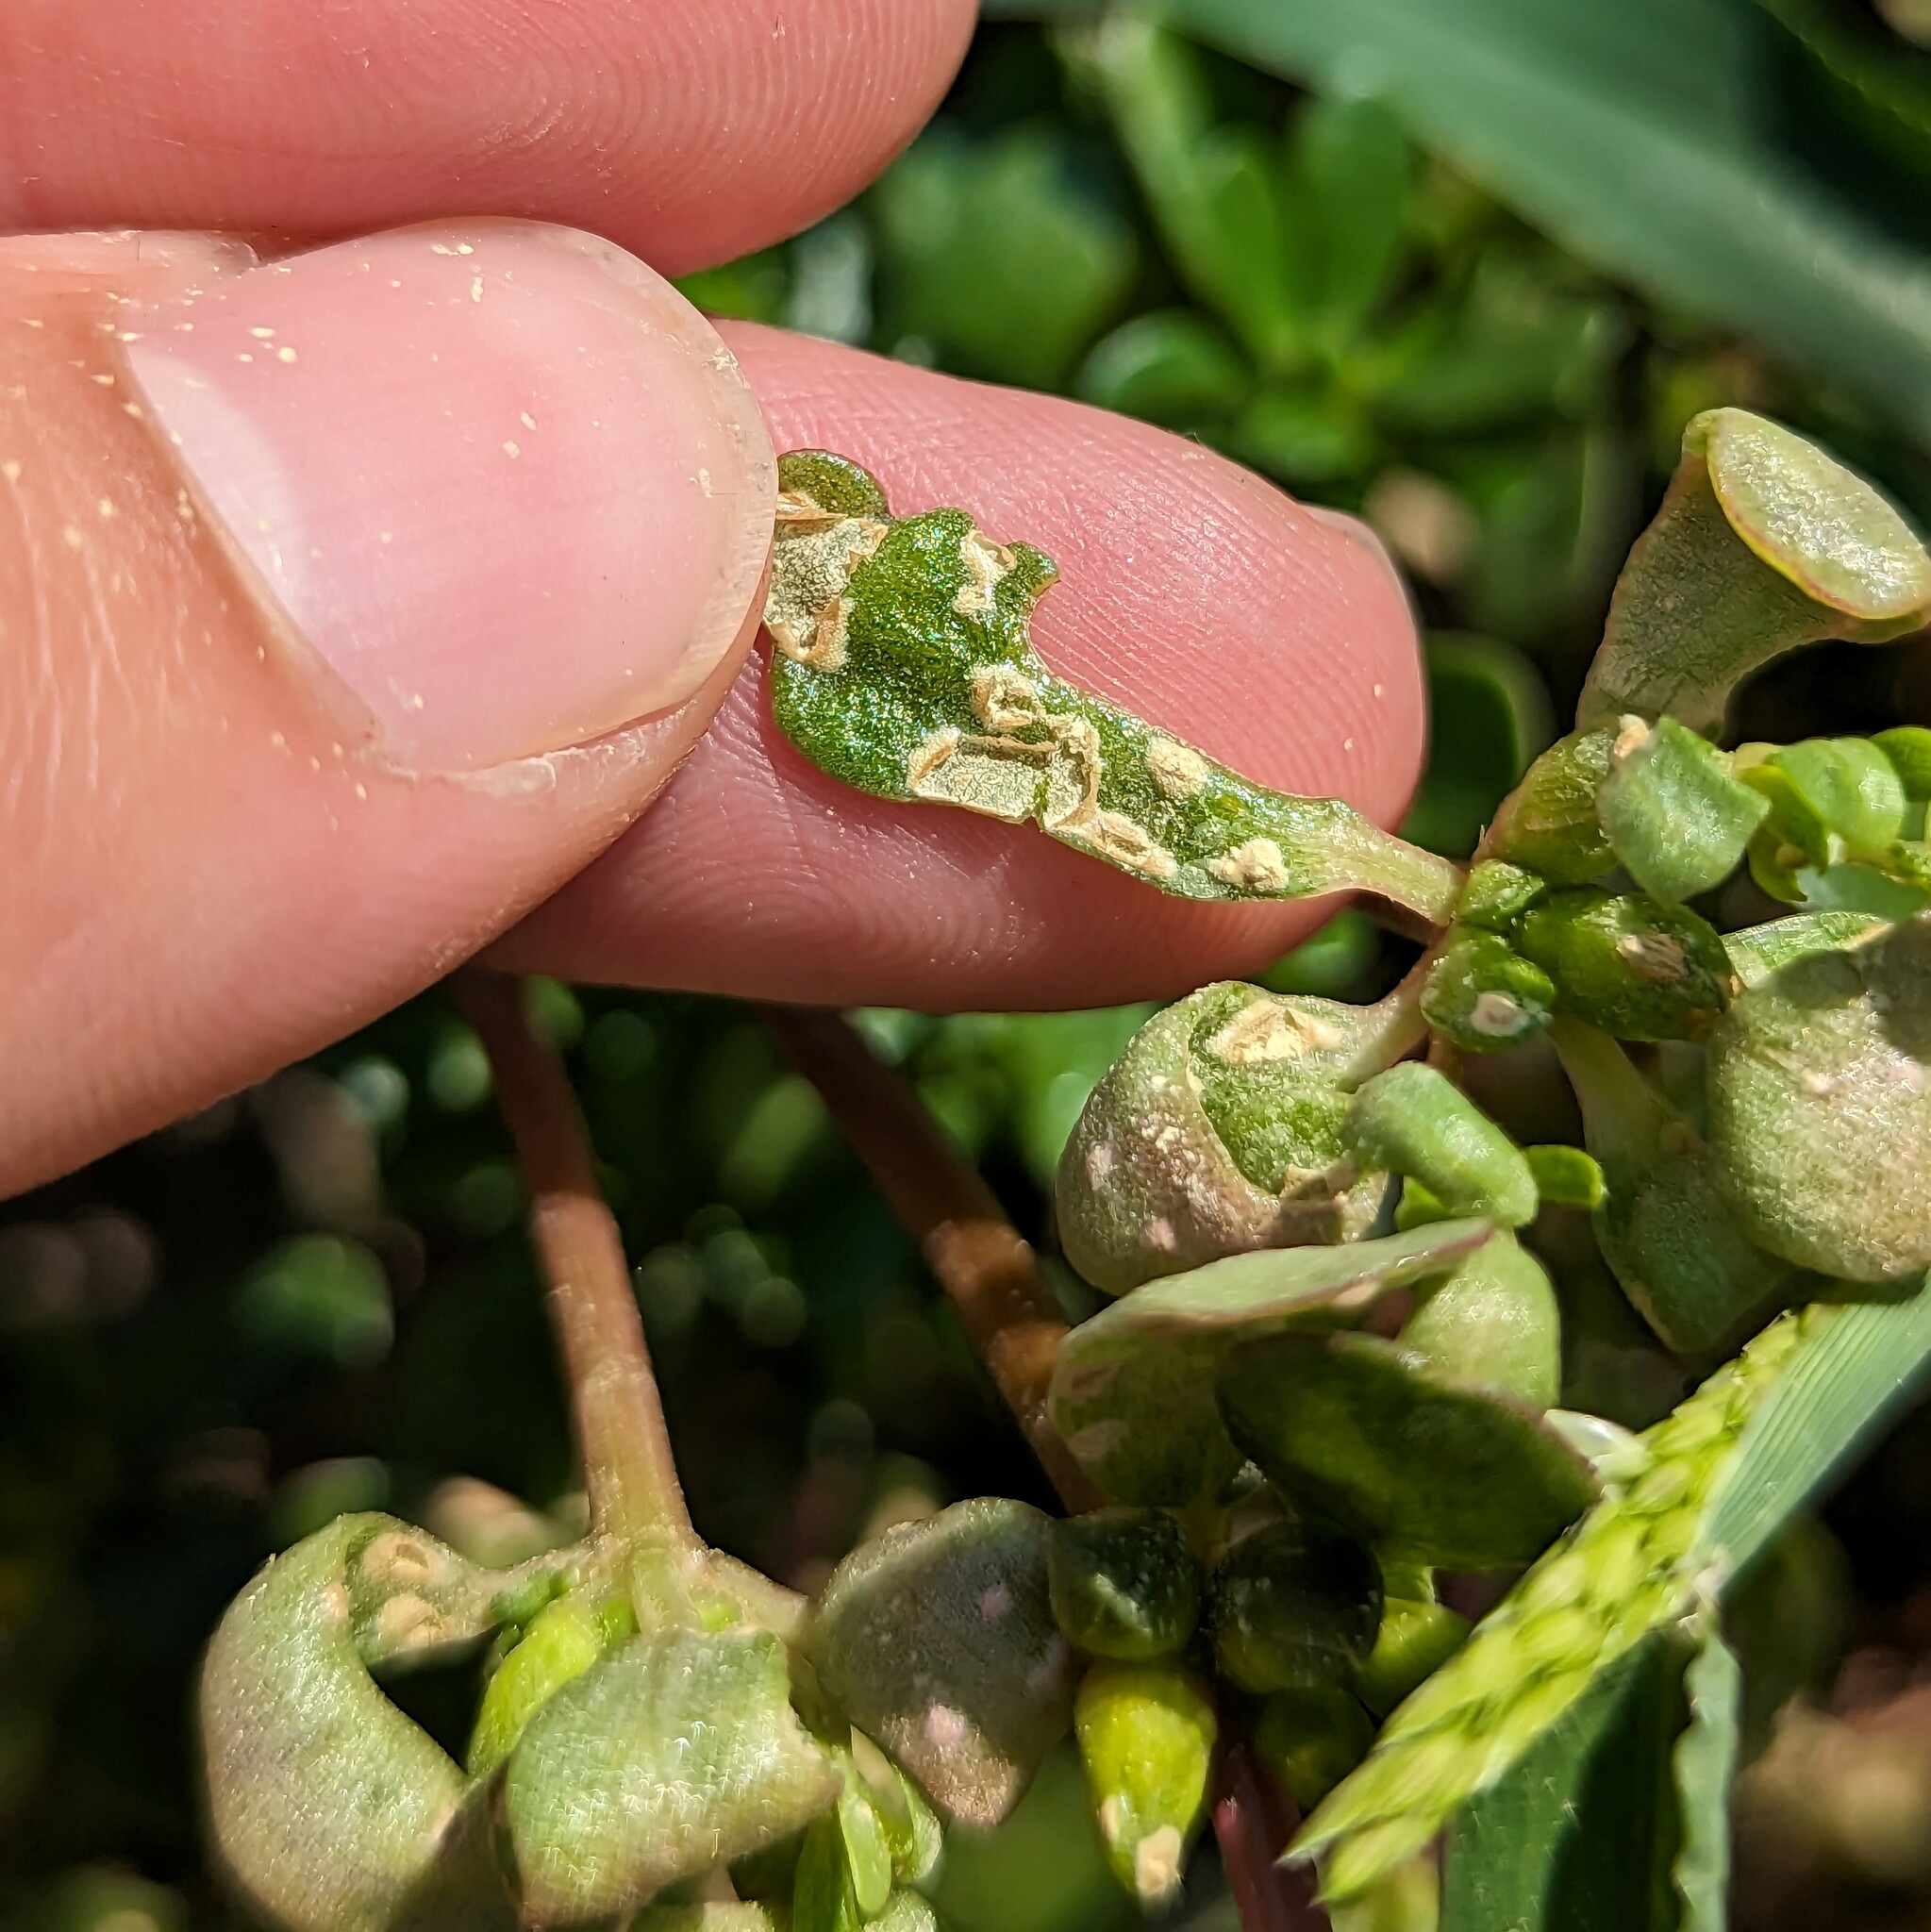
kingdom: Chromista
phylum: Oomycota
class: Peronosporea
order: Albuginales
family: Albuginaceae
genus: Wilsoniana
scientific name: Wilsoniana portulacae
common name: Purslane white rust
